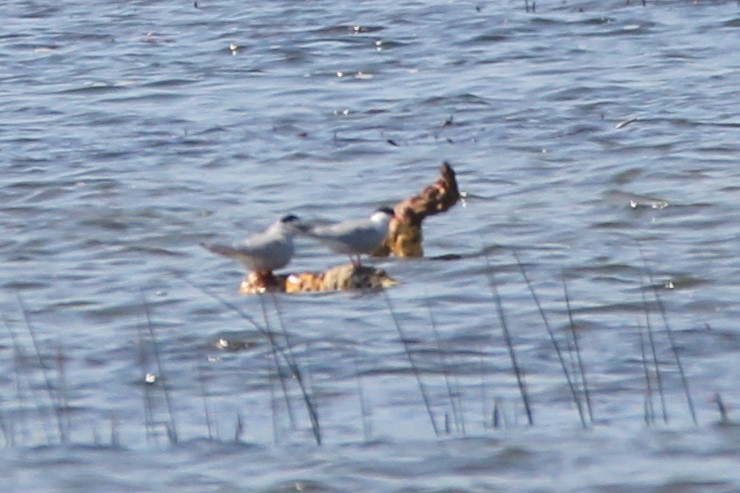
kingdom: Animalia
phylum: Chordata
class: Aves
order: Charadriiformes
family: Laridae
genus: Sterna
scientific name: Sterna hirundo
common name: Common tern
